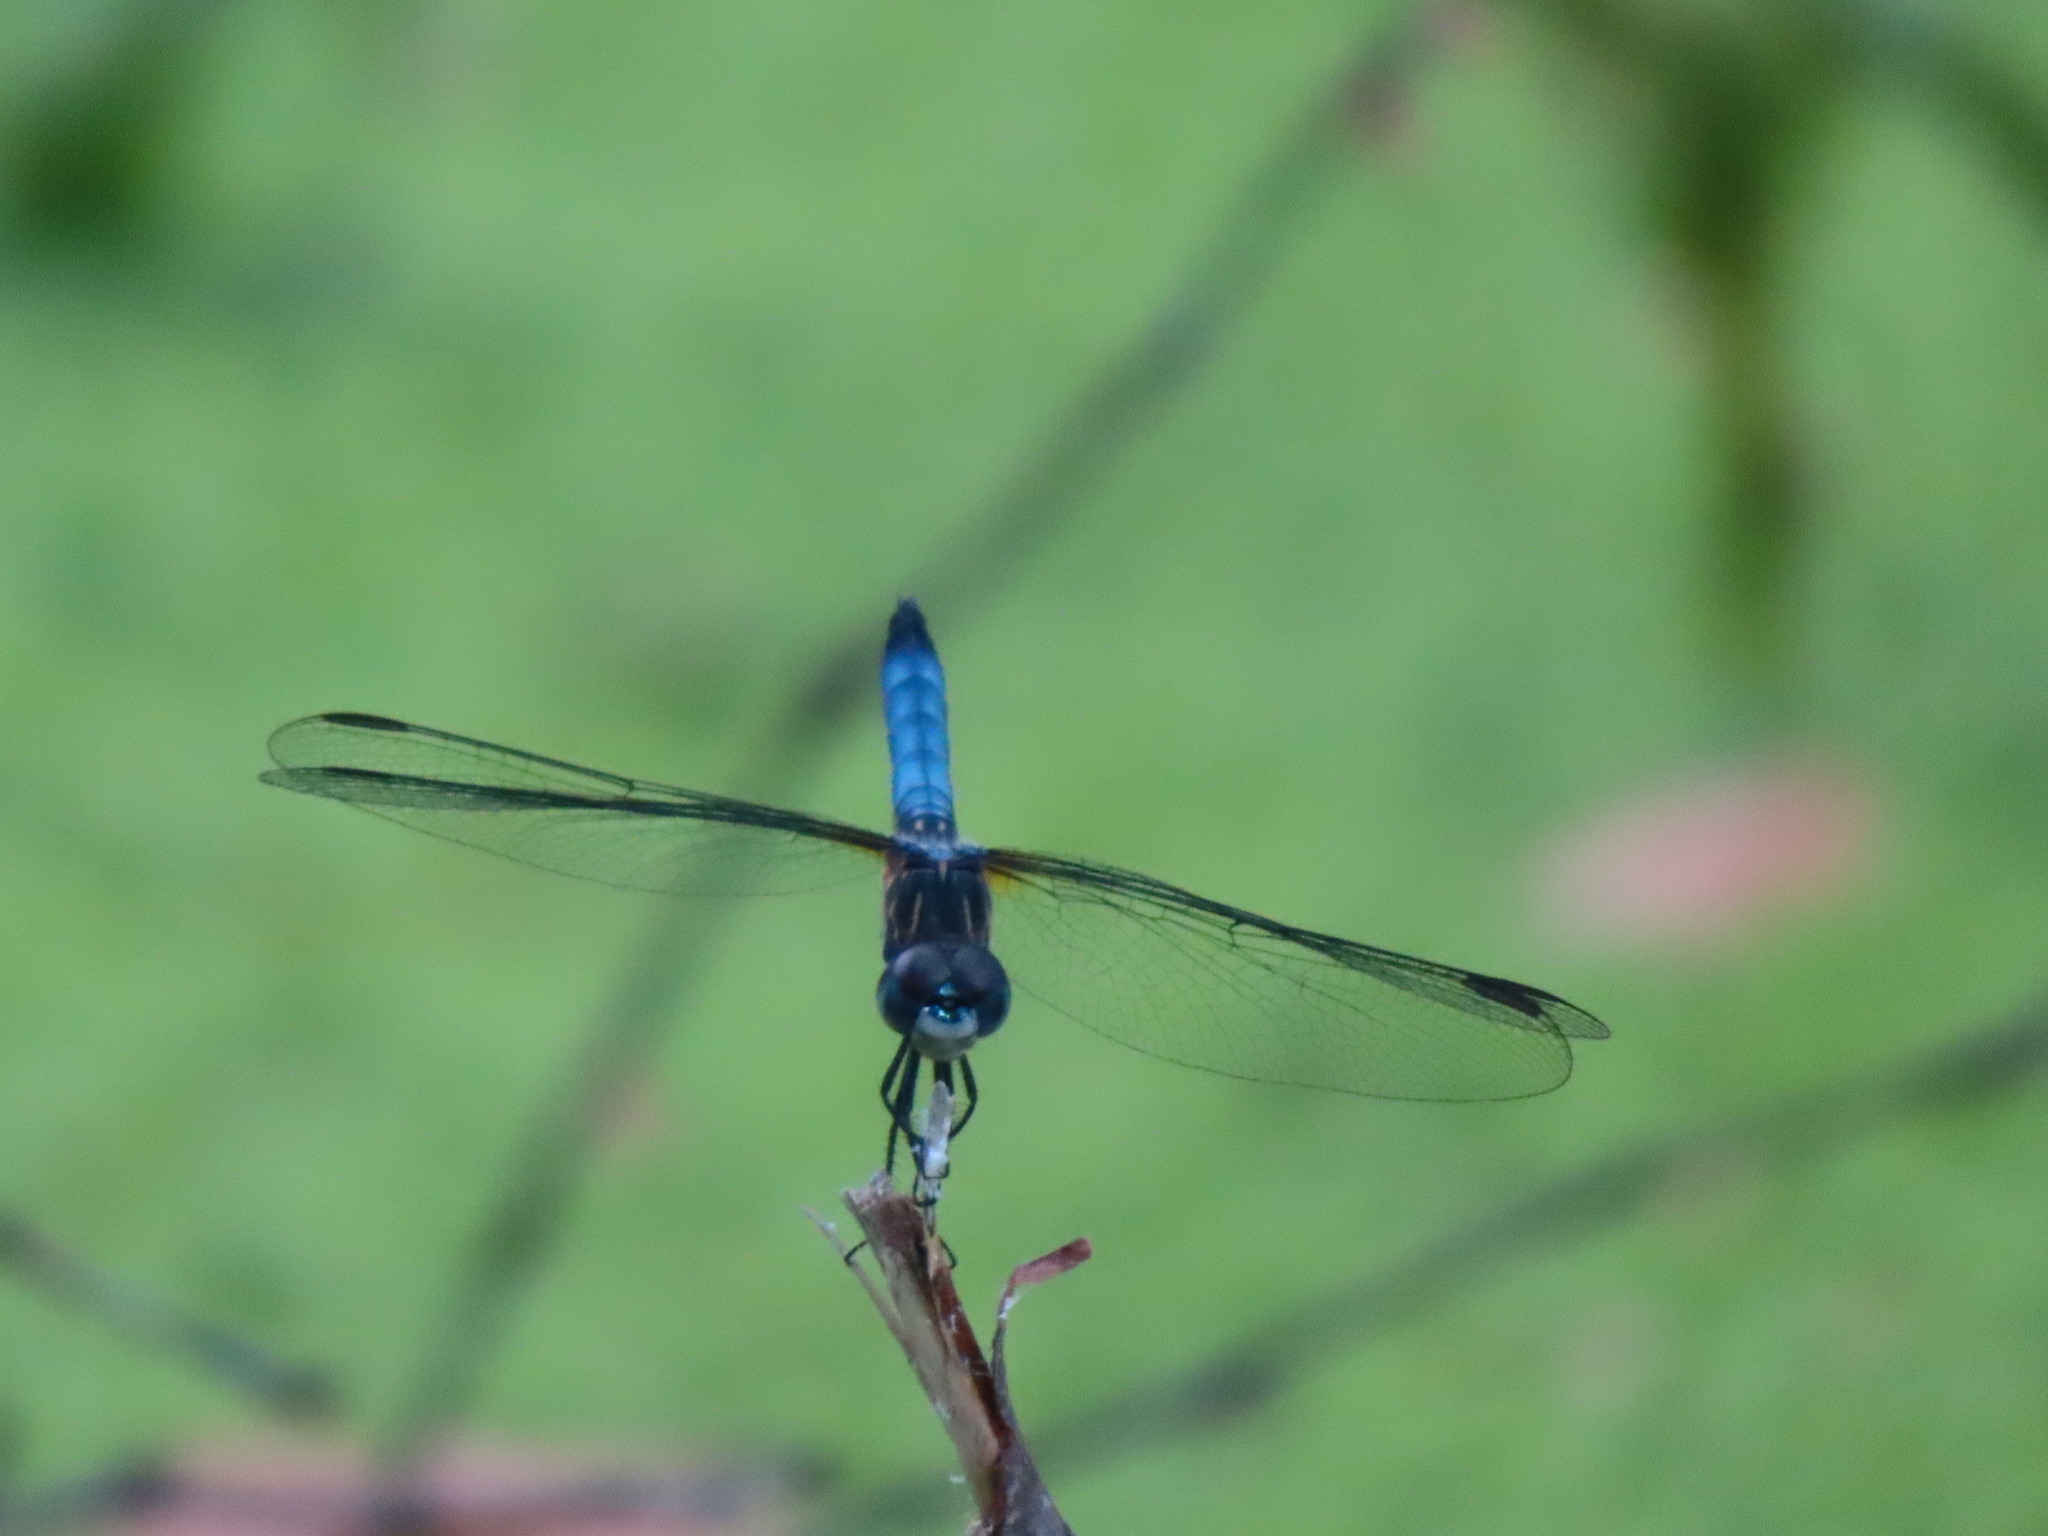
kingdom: Animalia
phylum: Arthropoda
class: Insecta
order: Odonata
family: Libellulidae
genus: Pachydiplax
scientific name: Pachydiplax longipennis
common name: Blue dasher
